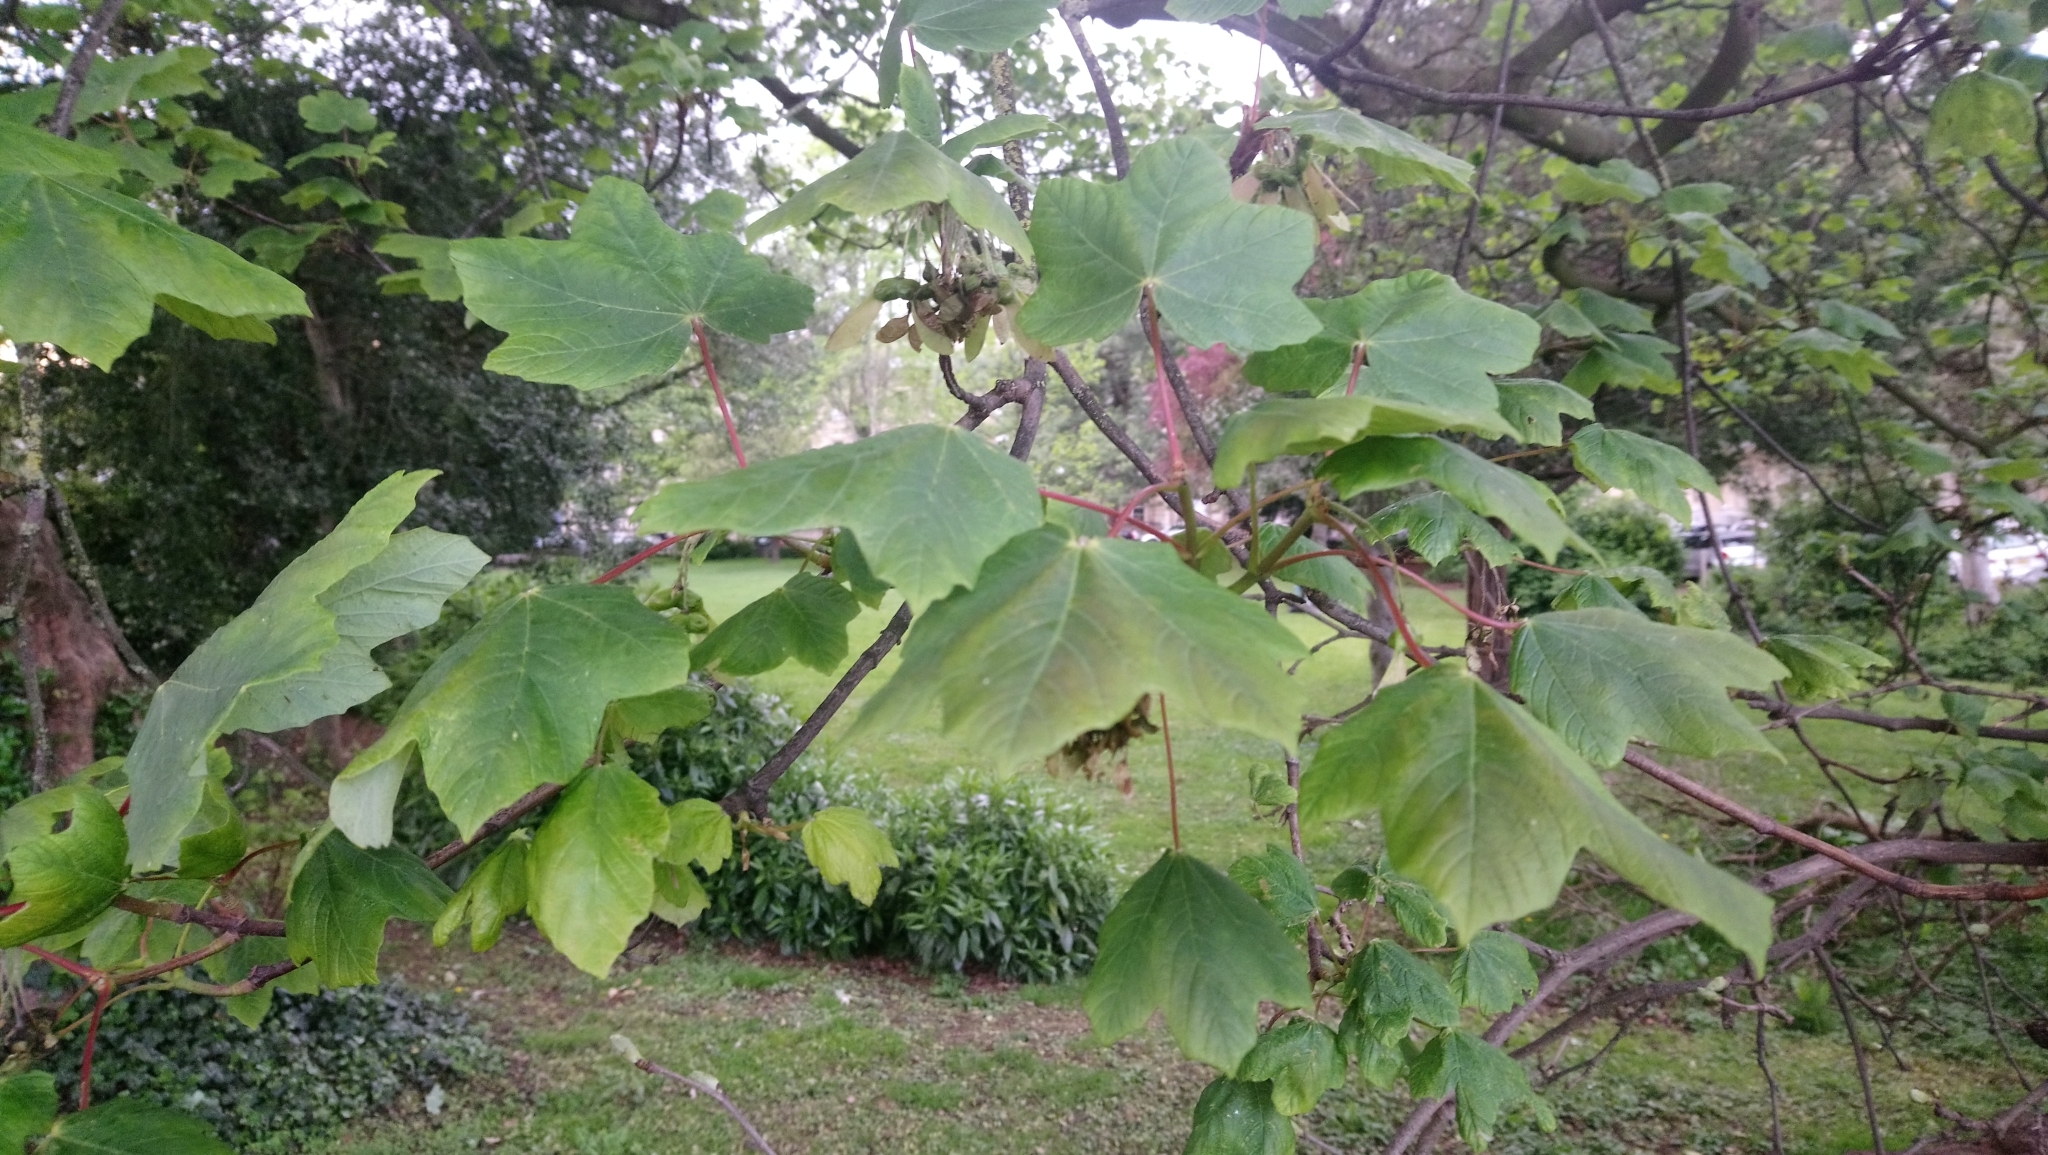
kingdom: Plantae
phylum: Tracheophyta
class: Magnoliopsida
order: Sapindales
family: Sapindaceae
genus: Acer
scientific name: Acer pseudoplatanus
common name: Sycamore
